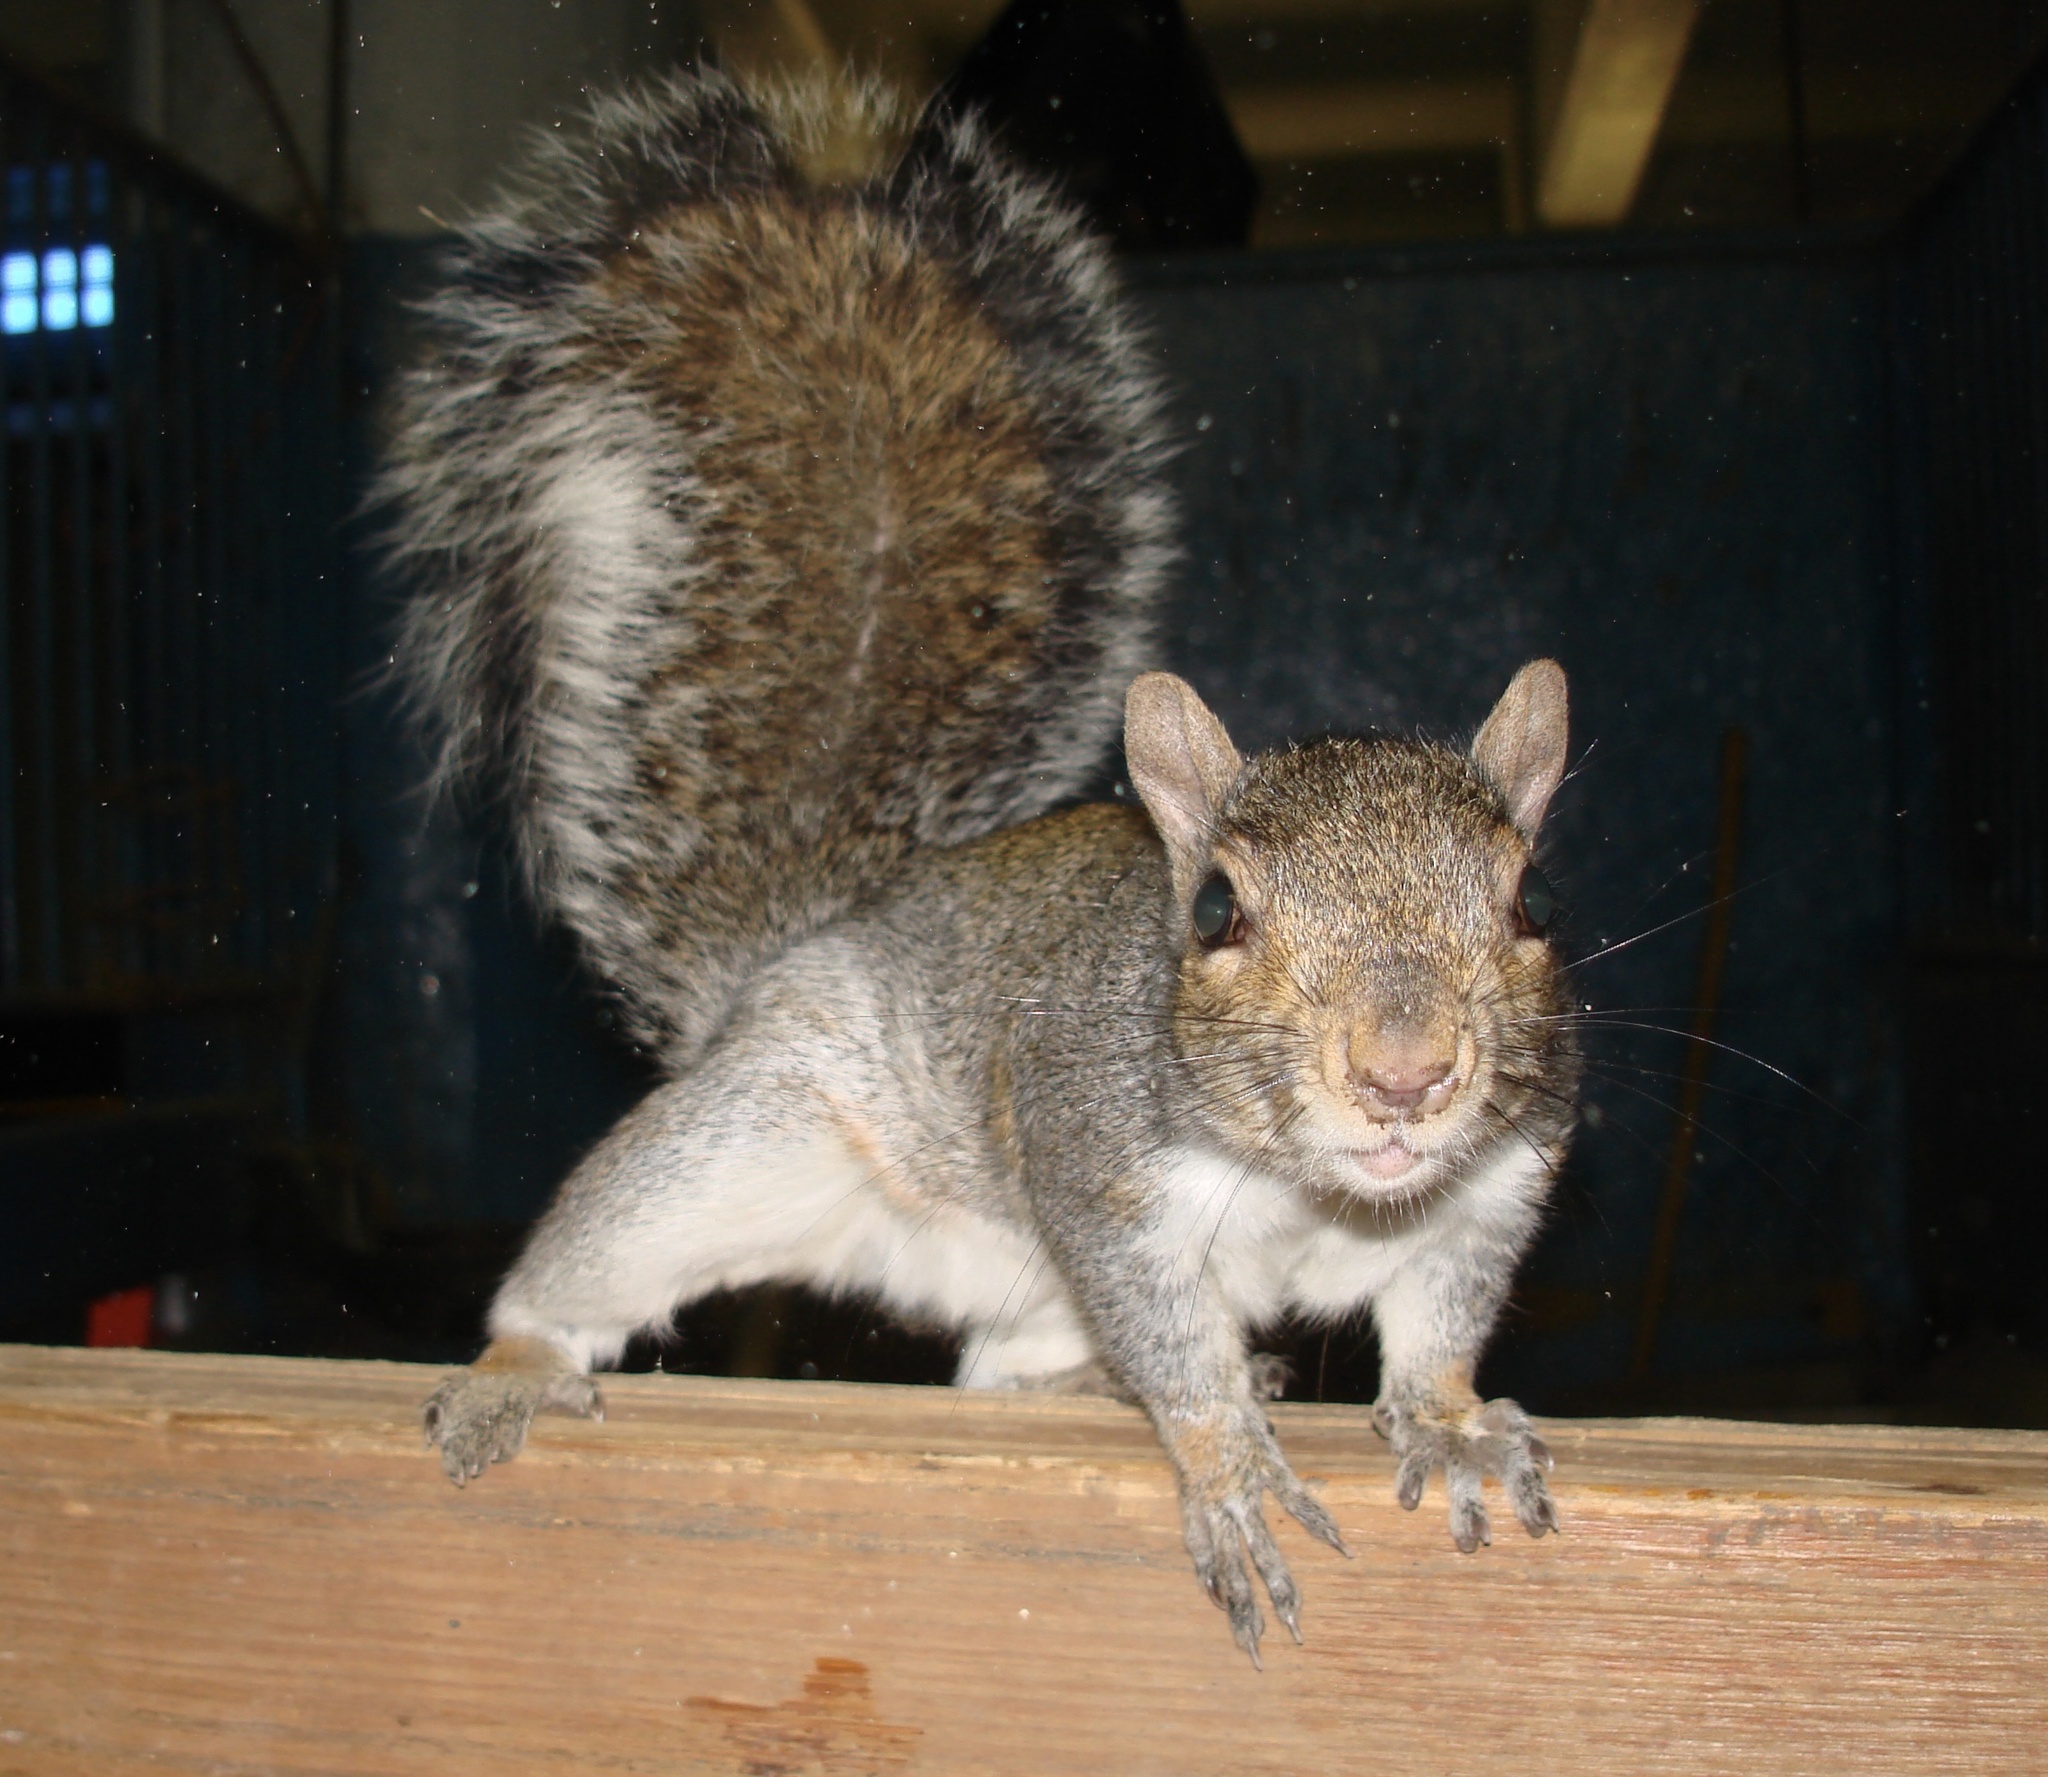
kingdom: Animalia
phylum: Chordata
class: Mammalia
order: Rodentia
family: Sciuridae
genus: Sciurus
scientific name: Sciurus carolinensis
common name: Eastern gray squirrel
